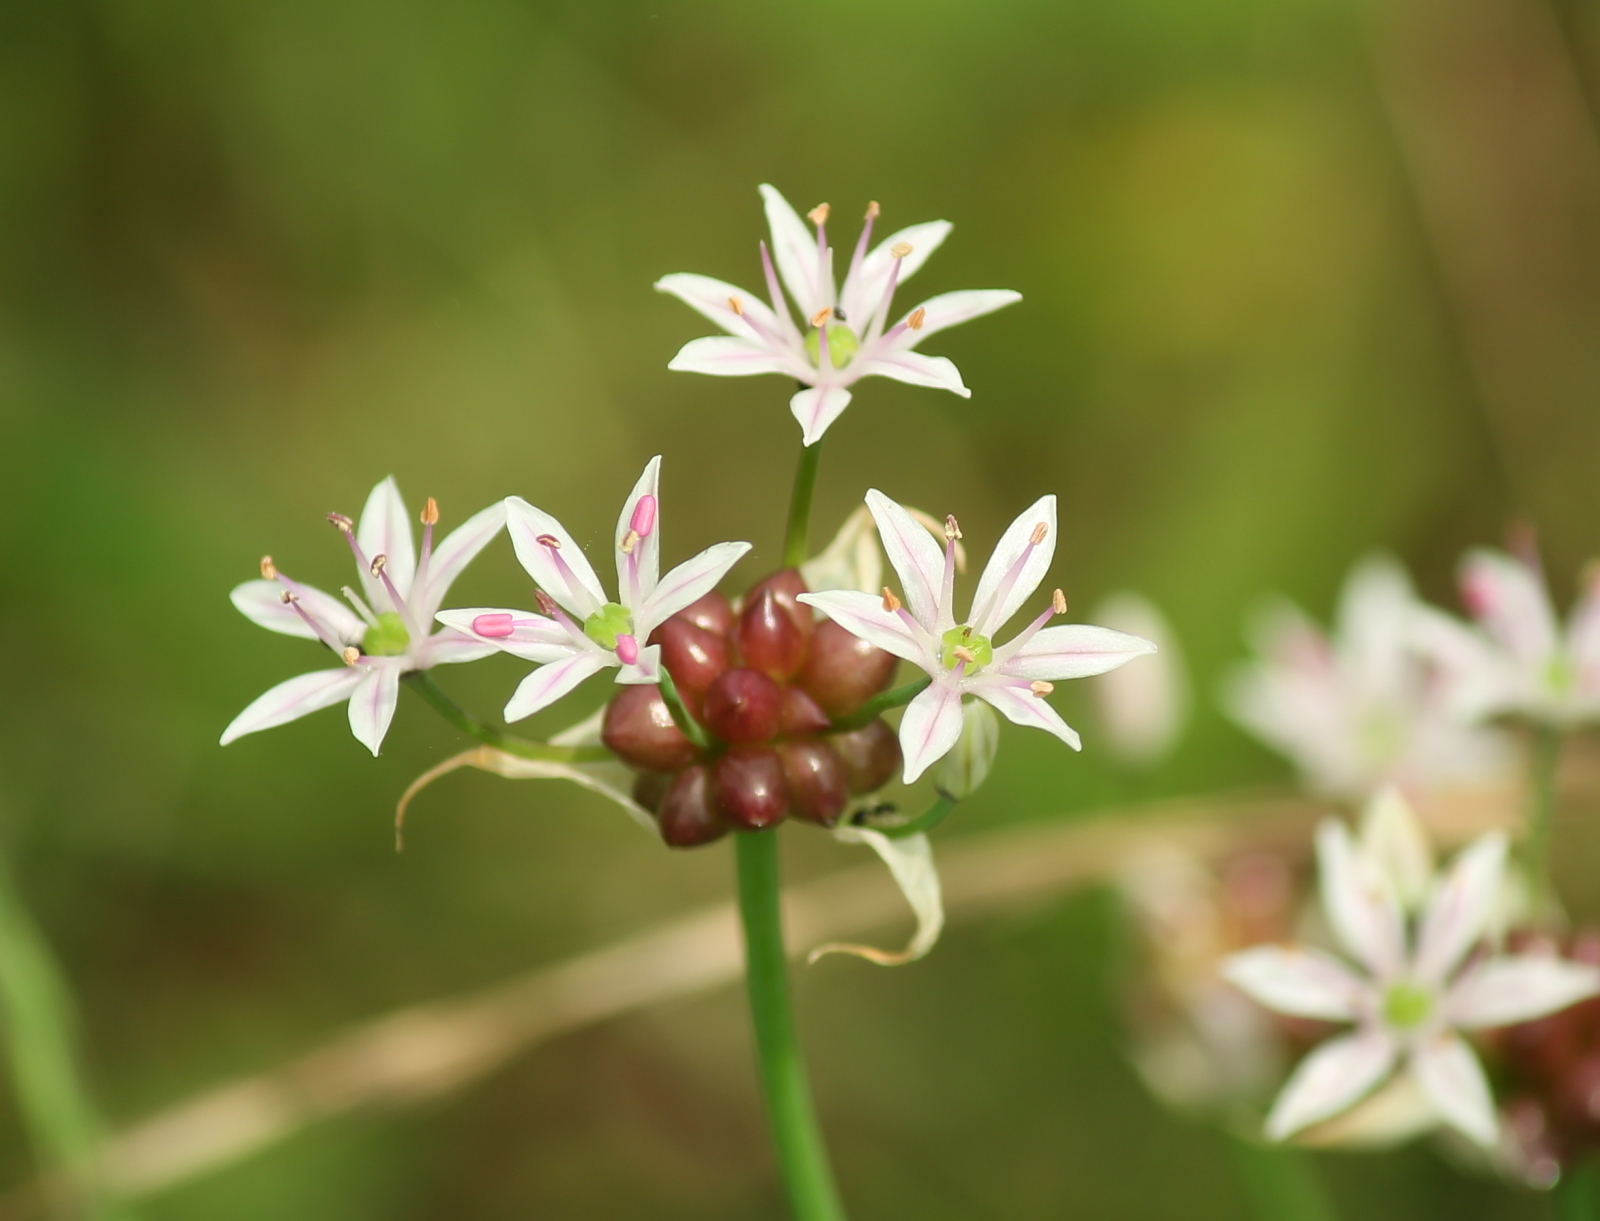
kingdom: Plantae
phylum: Tracheophyta
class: Liliopsida
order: Asparagales
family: Amaryllidaceae
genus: Allium
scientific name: Allium canadense
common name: Meadow garlic
